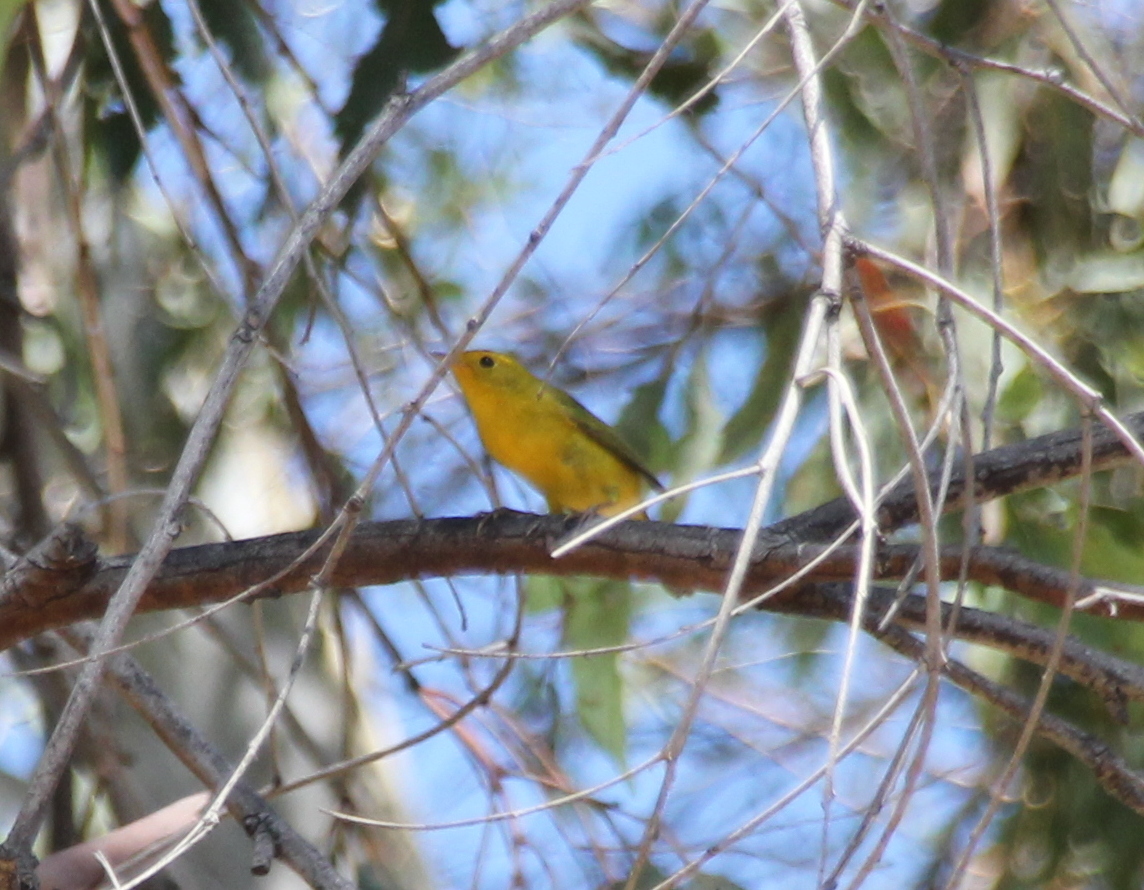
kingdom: Animalia
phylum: Chordata
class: Aves
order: Passeriformes
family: Parulidae
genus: Cardellina
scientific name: Cardellina pusilla
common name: Wilson's warbler
